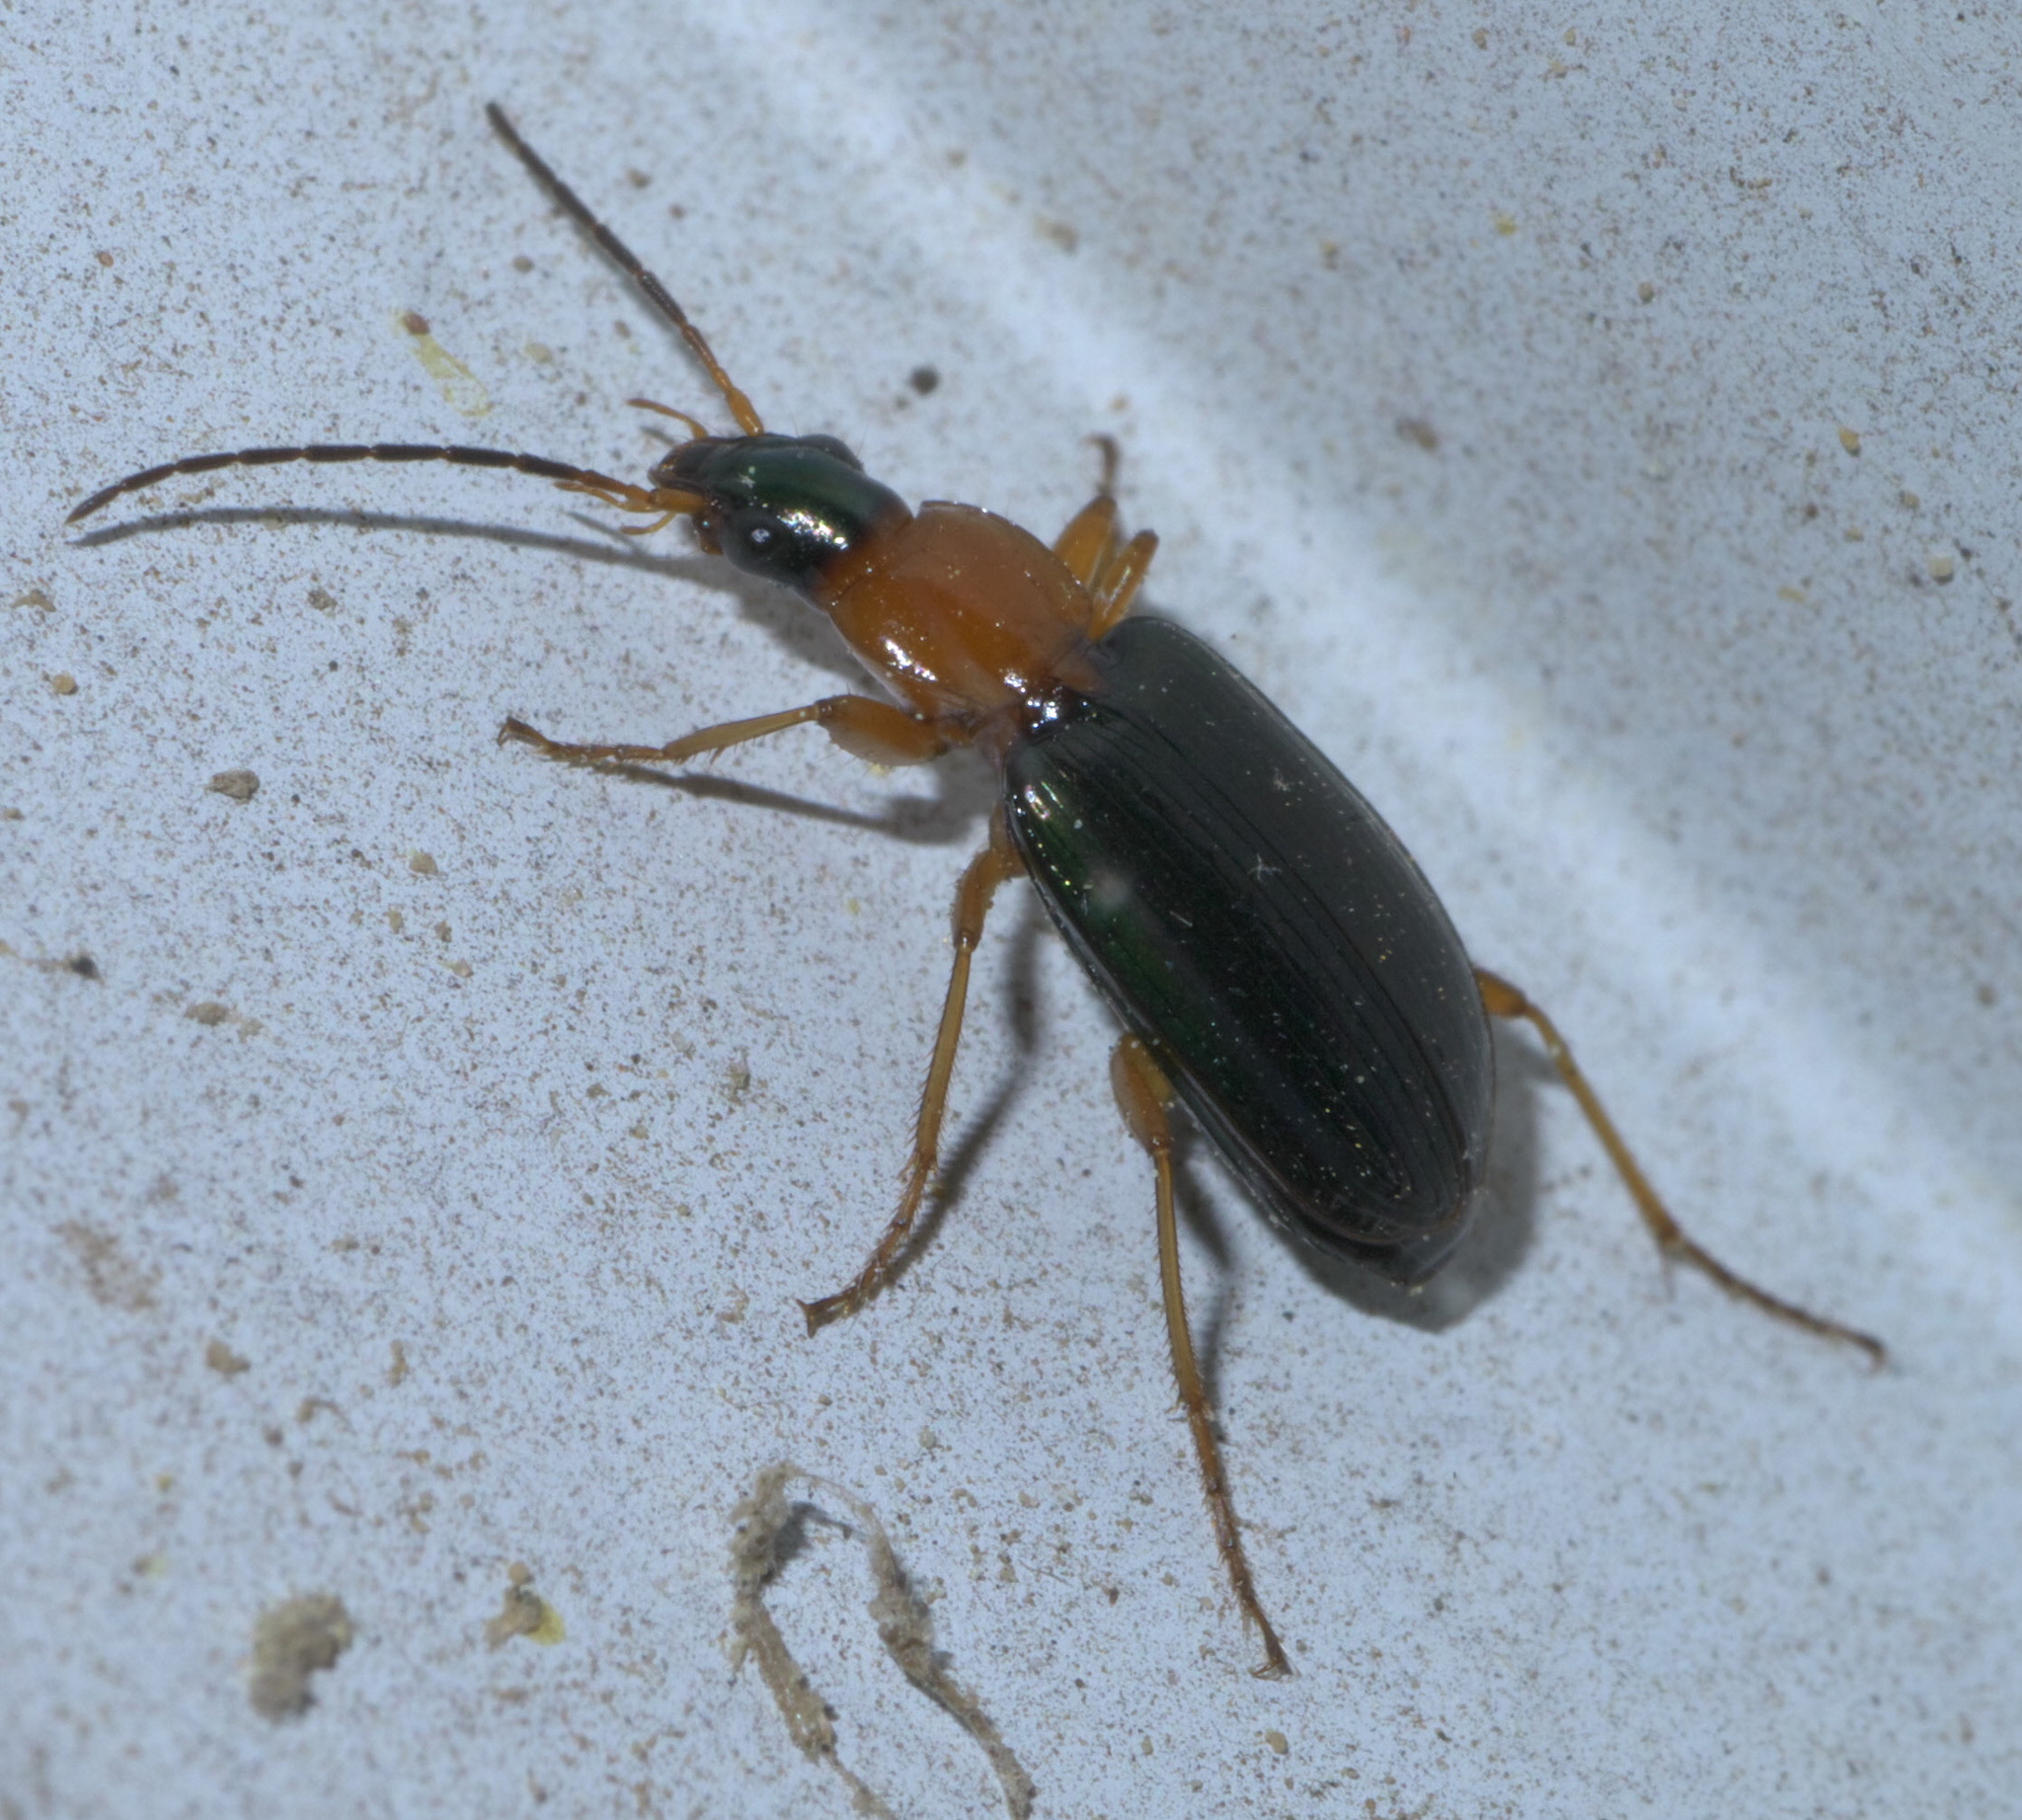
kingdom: Animalia
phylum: Arthropoda
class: Insecta
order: Coleoptera
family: Carabidae
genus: Agonum
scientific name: Agonum decorum
